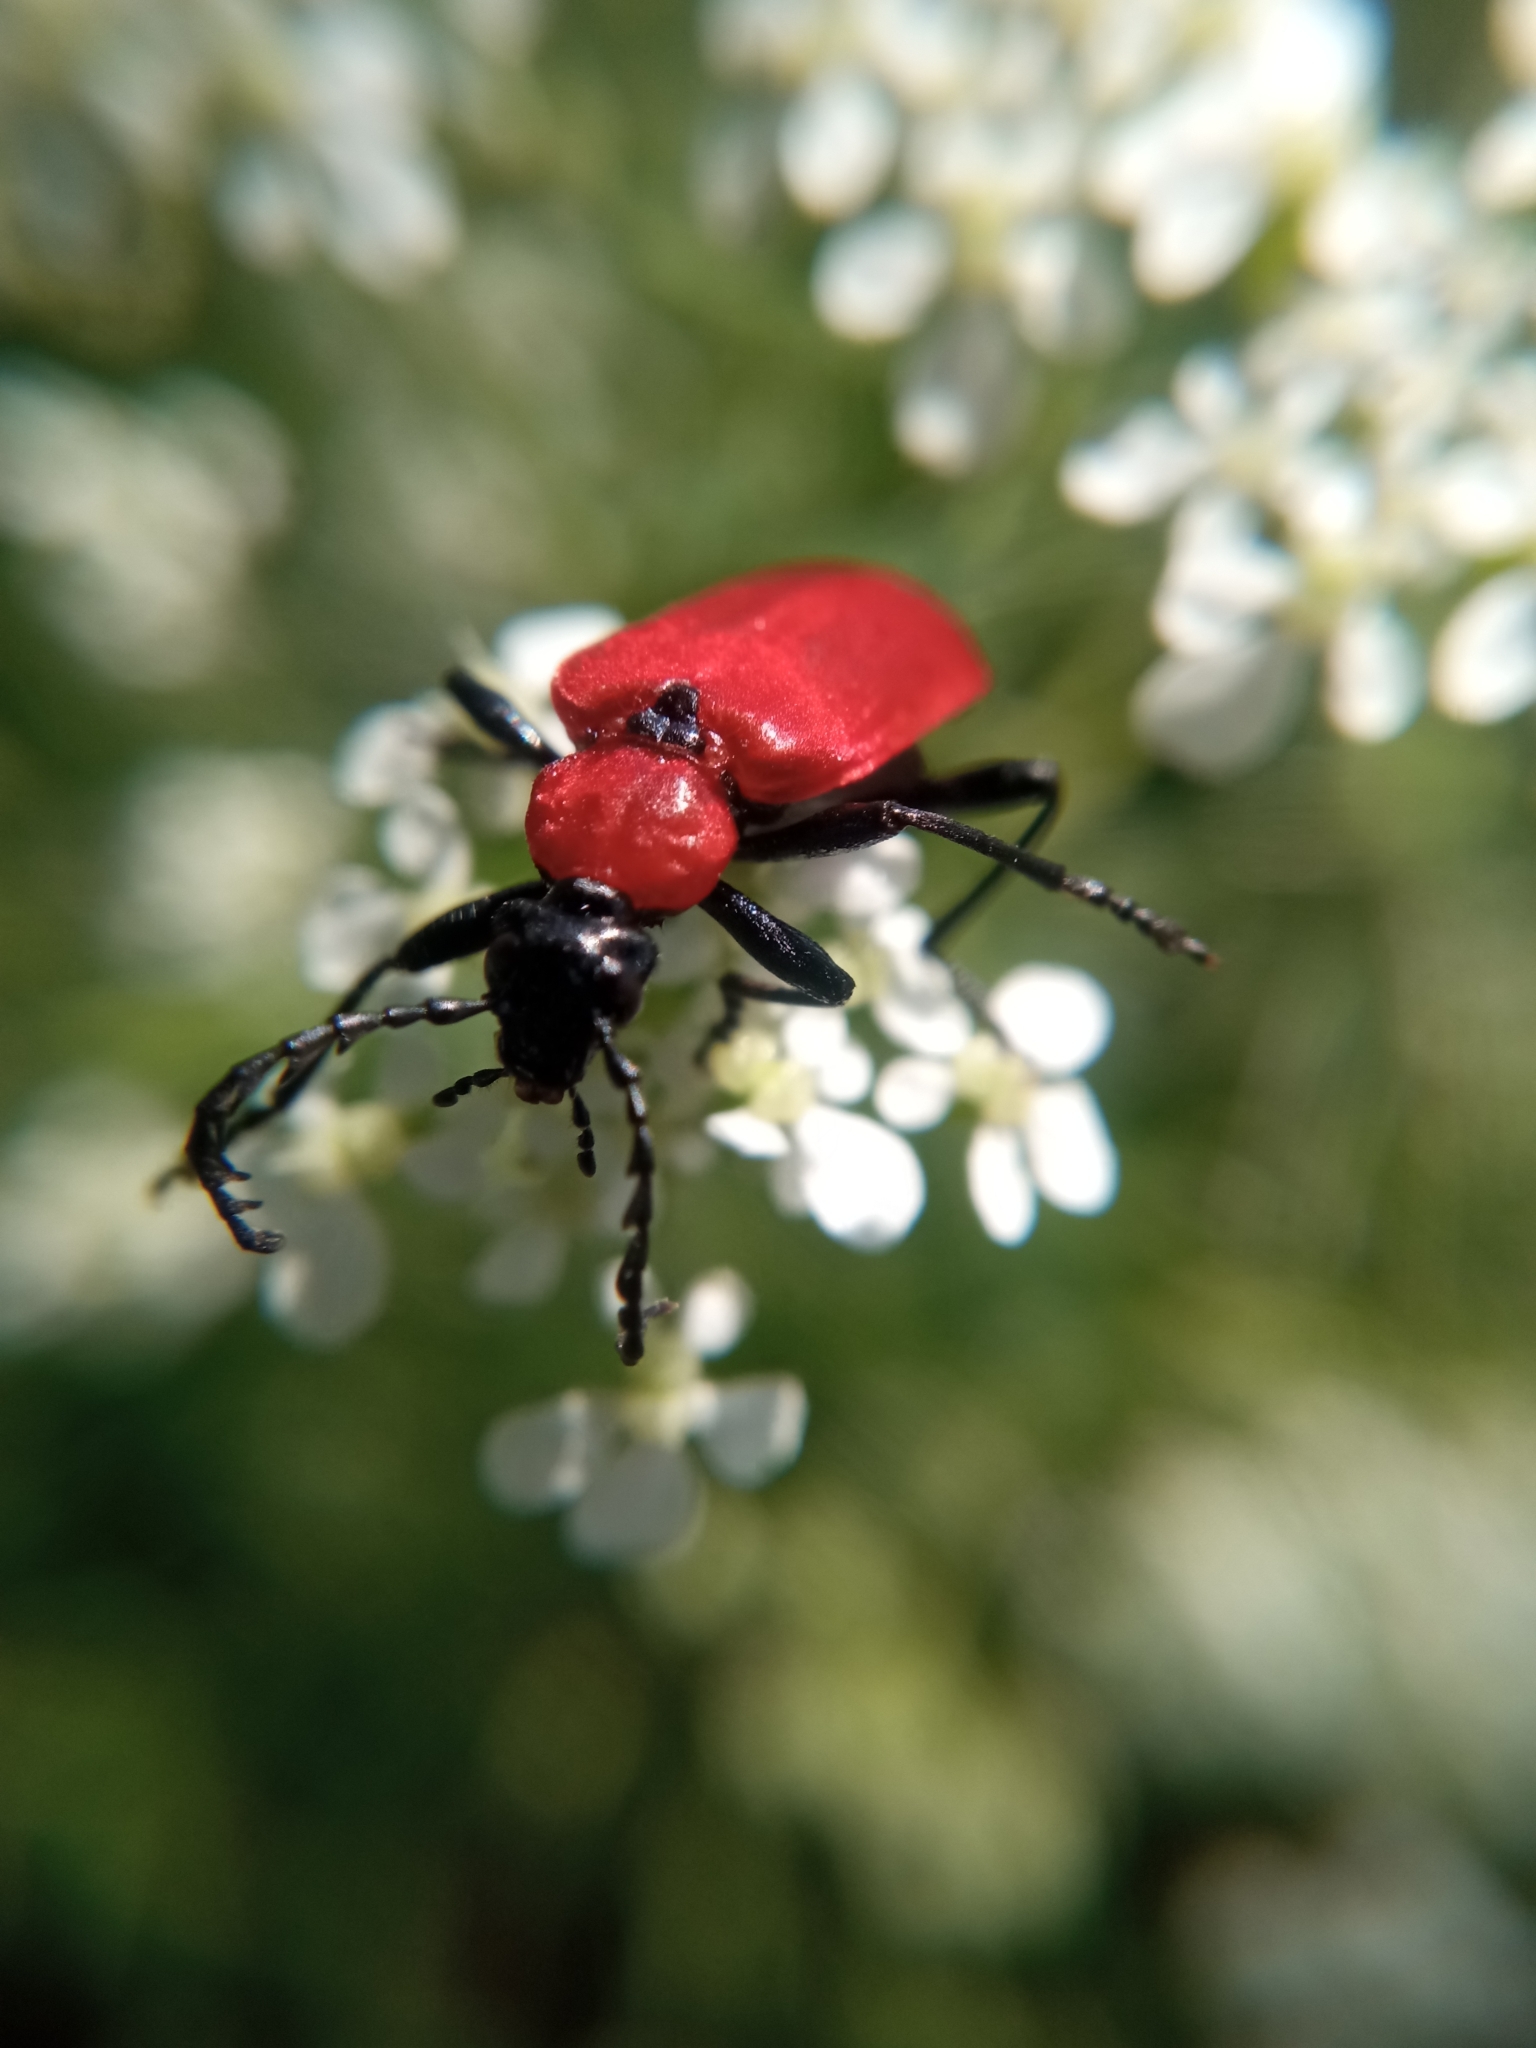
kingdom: Animalia
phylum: Arthropoda
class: Insecta
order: Coleoptera
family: Pyrochroidae
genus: Pyrochroa
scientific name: Pyrochroa coccinea
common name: Black-headed cardinal beetle
